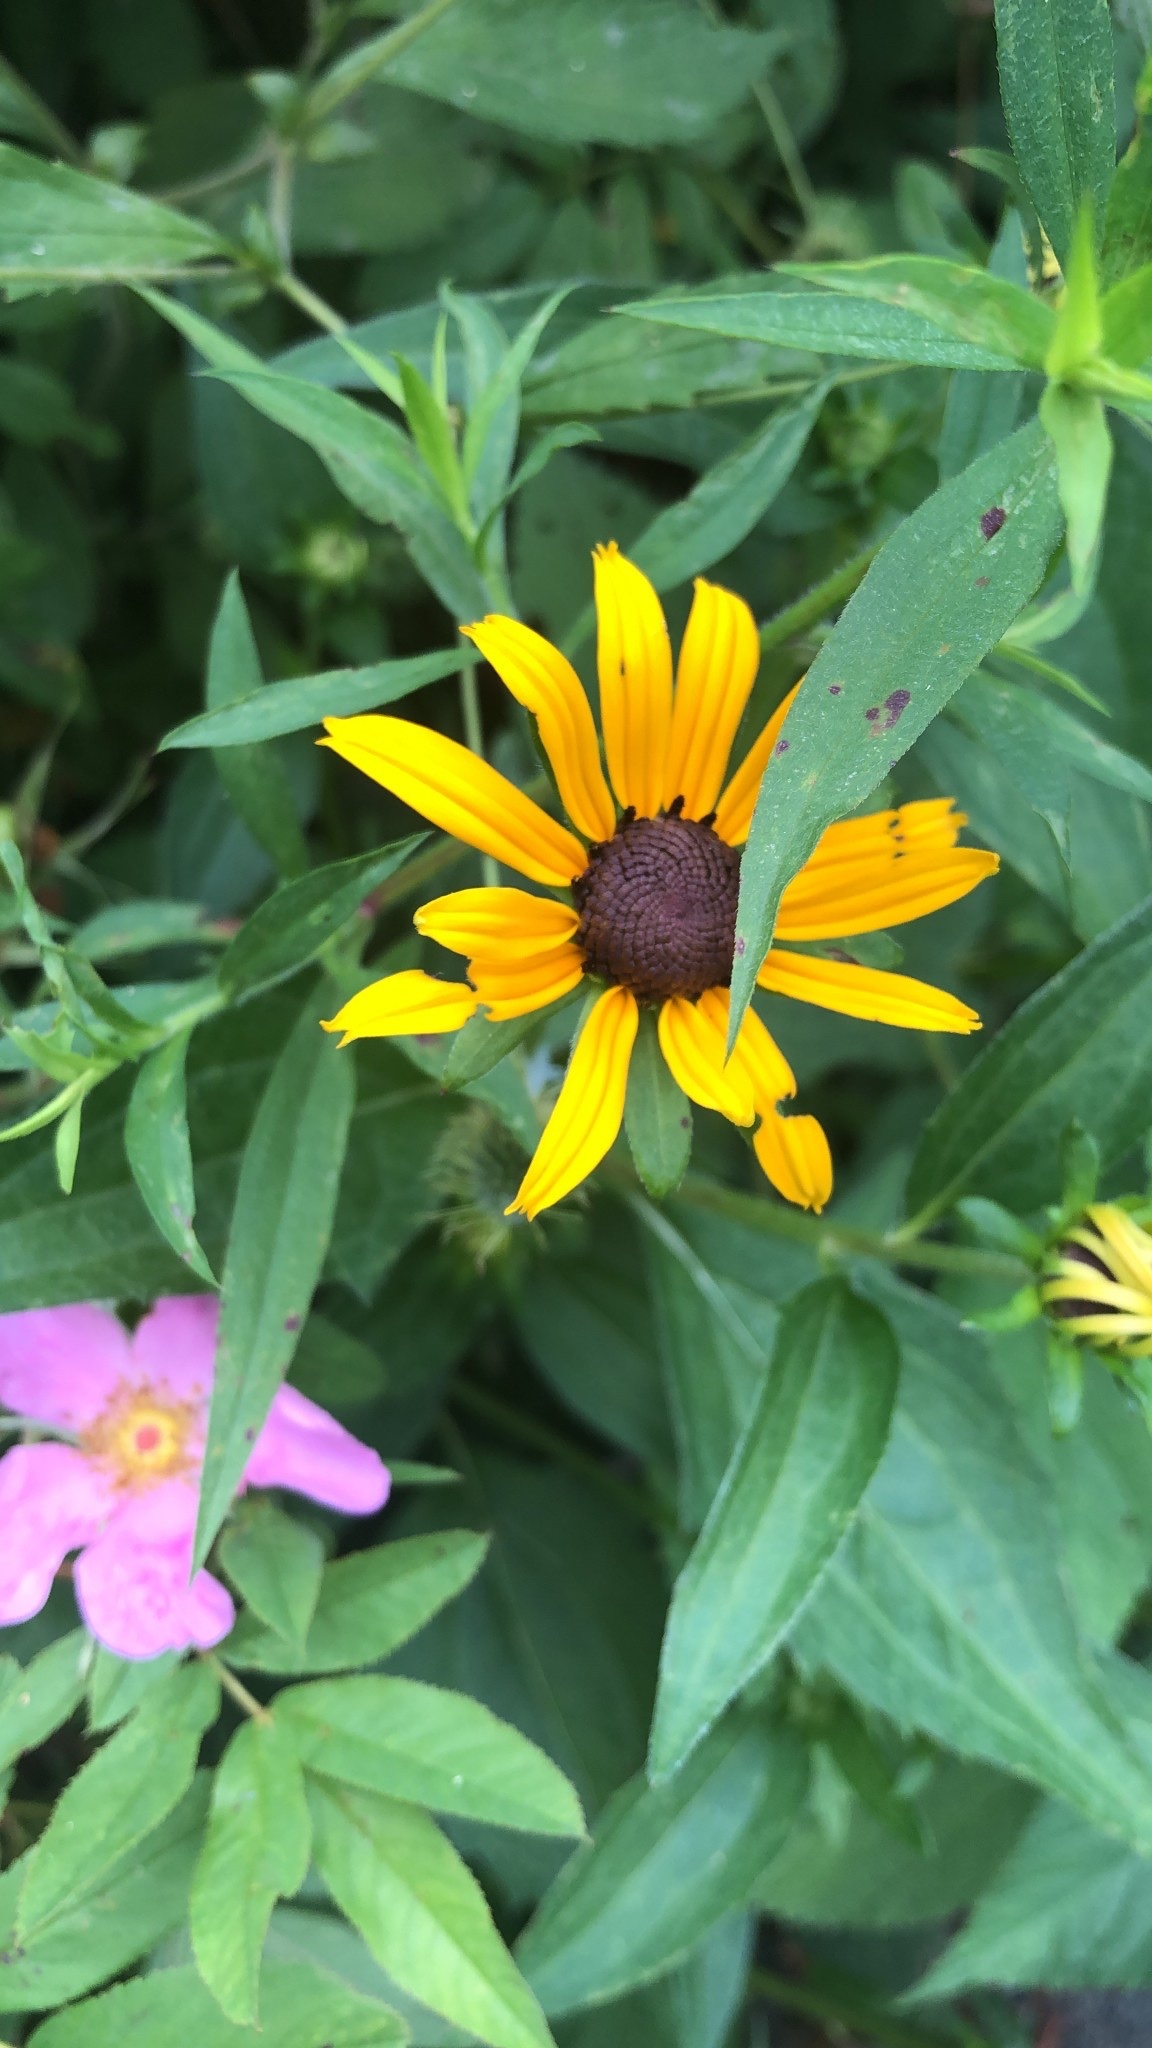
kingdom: Plantae
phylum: Tracheophyta
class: Magnoliopsida
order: Asterales
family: Asteraceae
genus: Rudbeckia
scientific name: Rudbeckia hirta
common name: Black-eyed-susan
